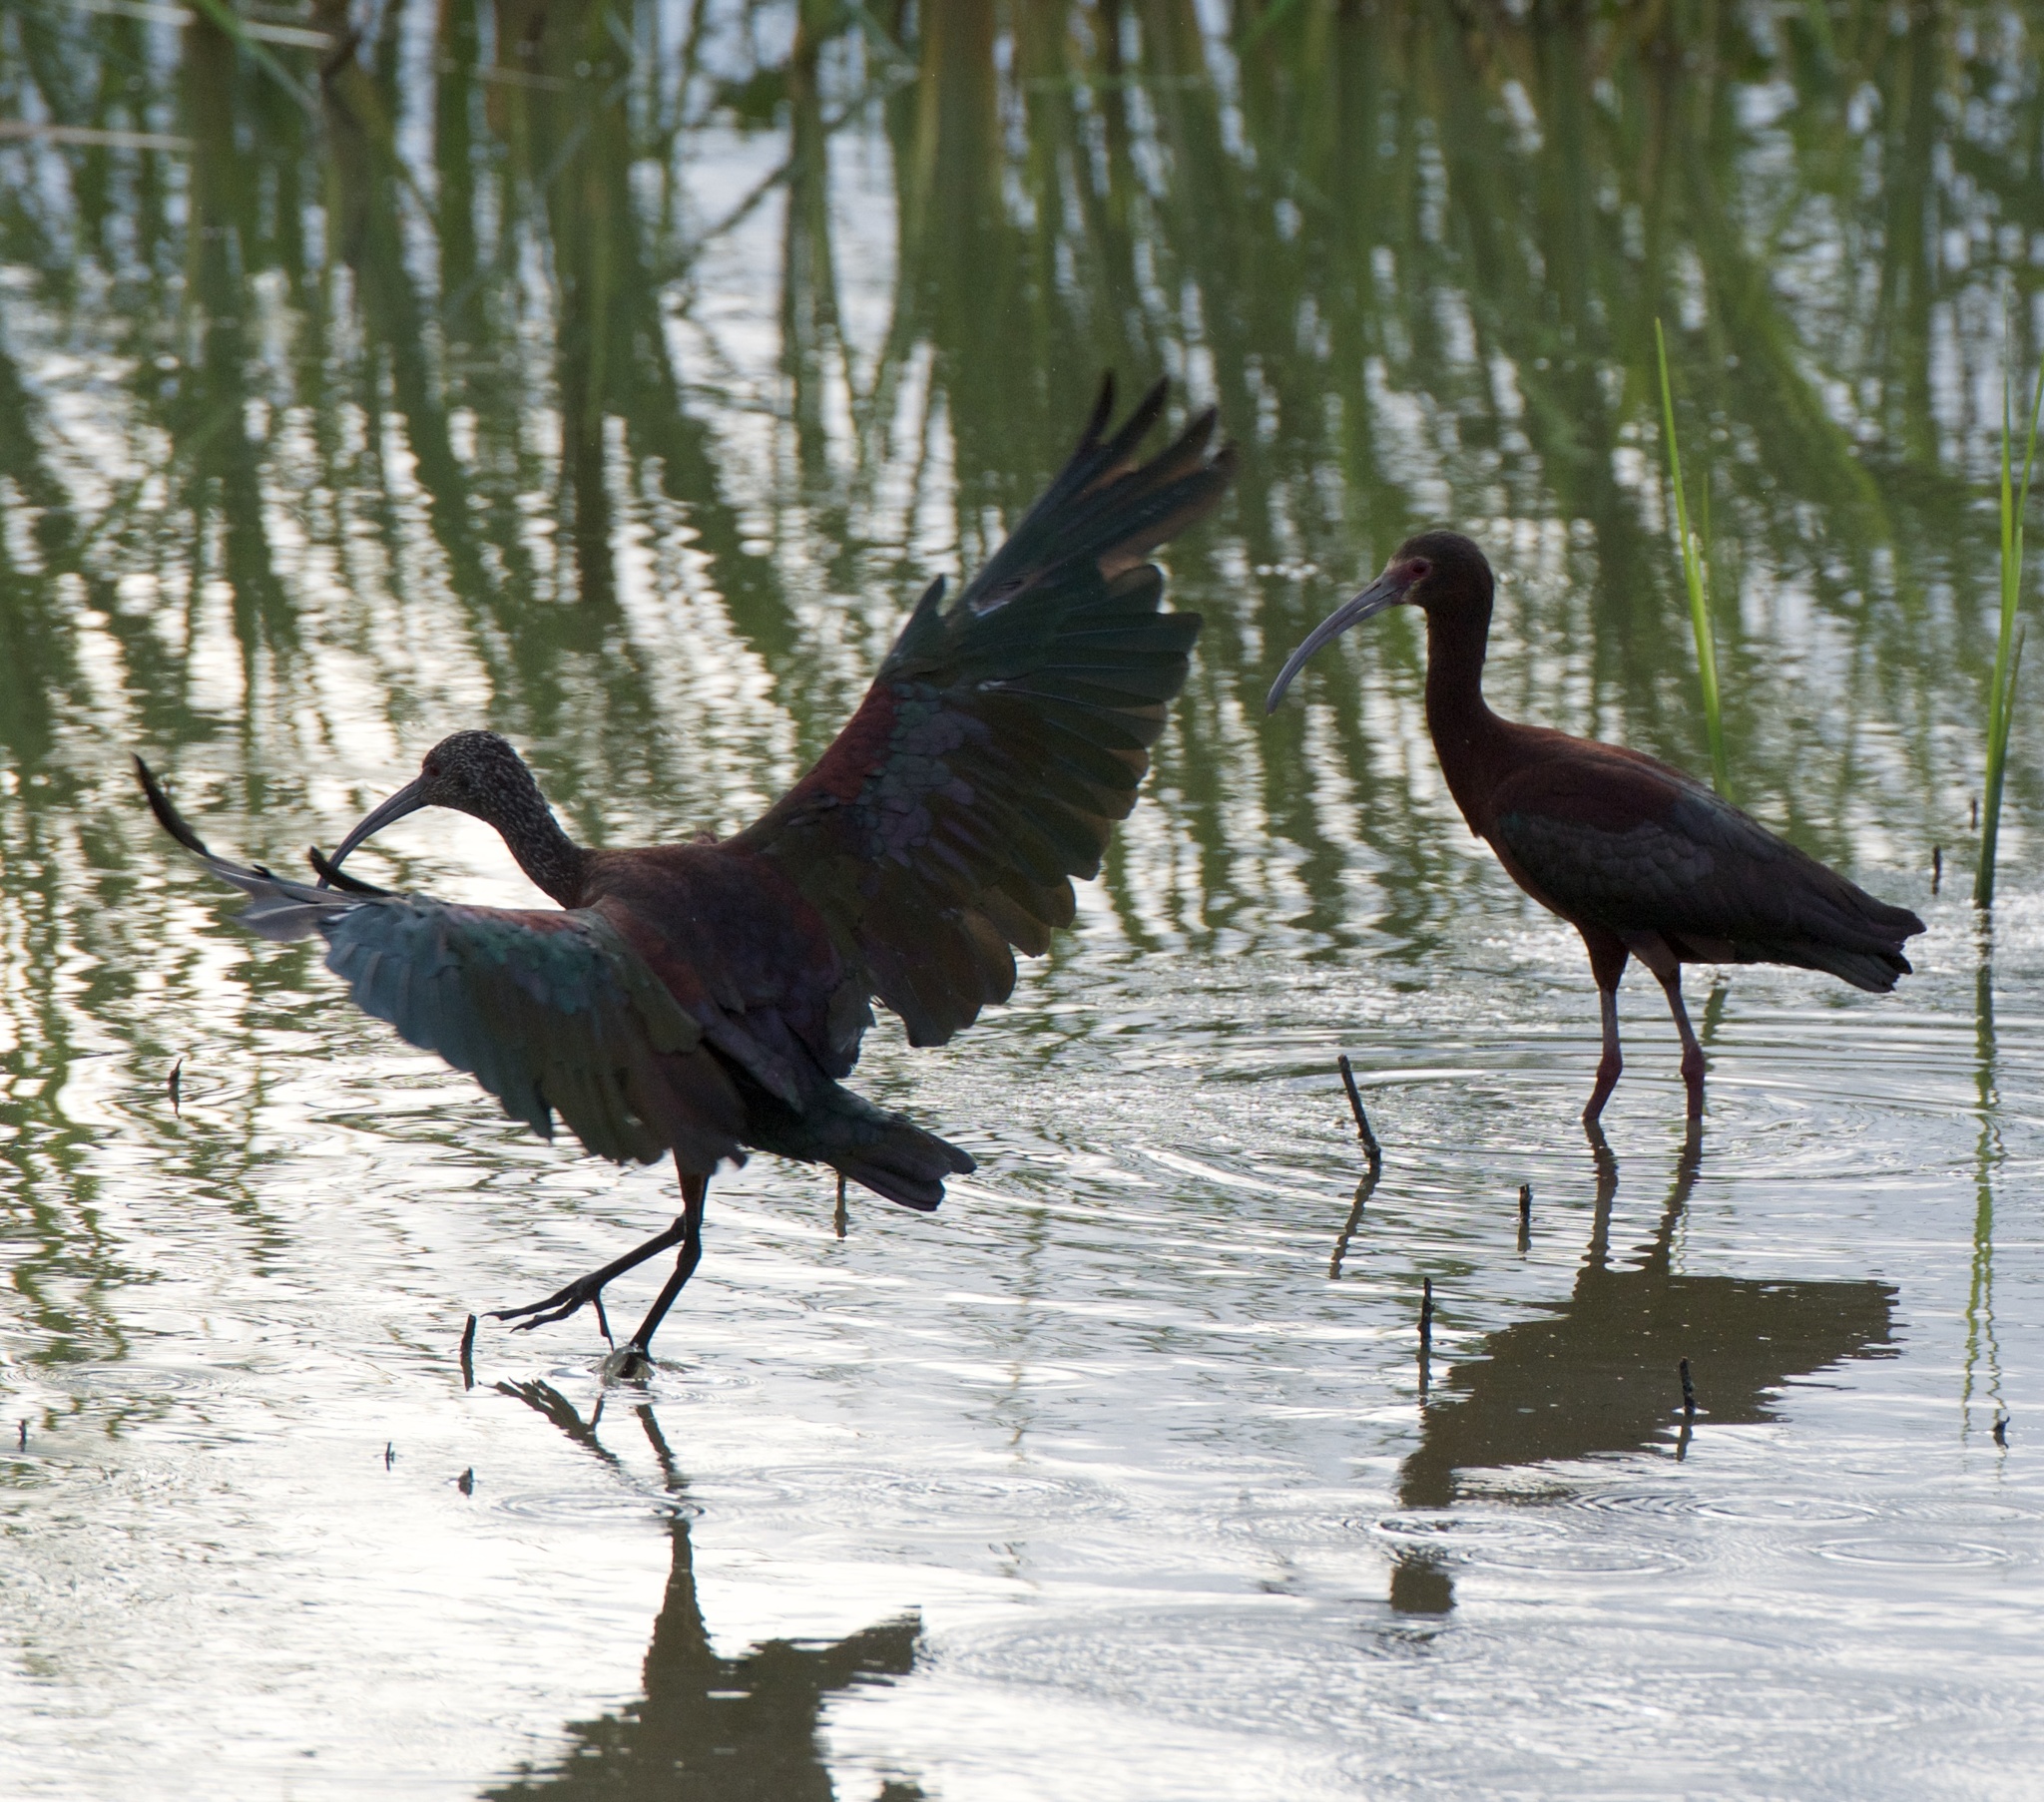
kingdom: Animalia
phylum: Chordata
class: Aves
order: Pelecaniformes
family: Threskiornithidae
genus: Plegadis
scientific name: Plegadis chihi
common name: White-faced ibis
